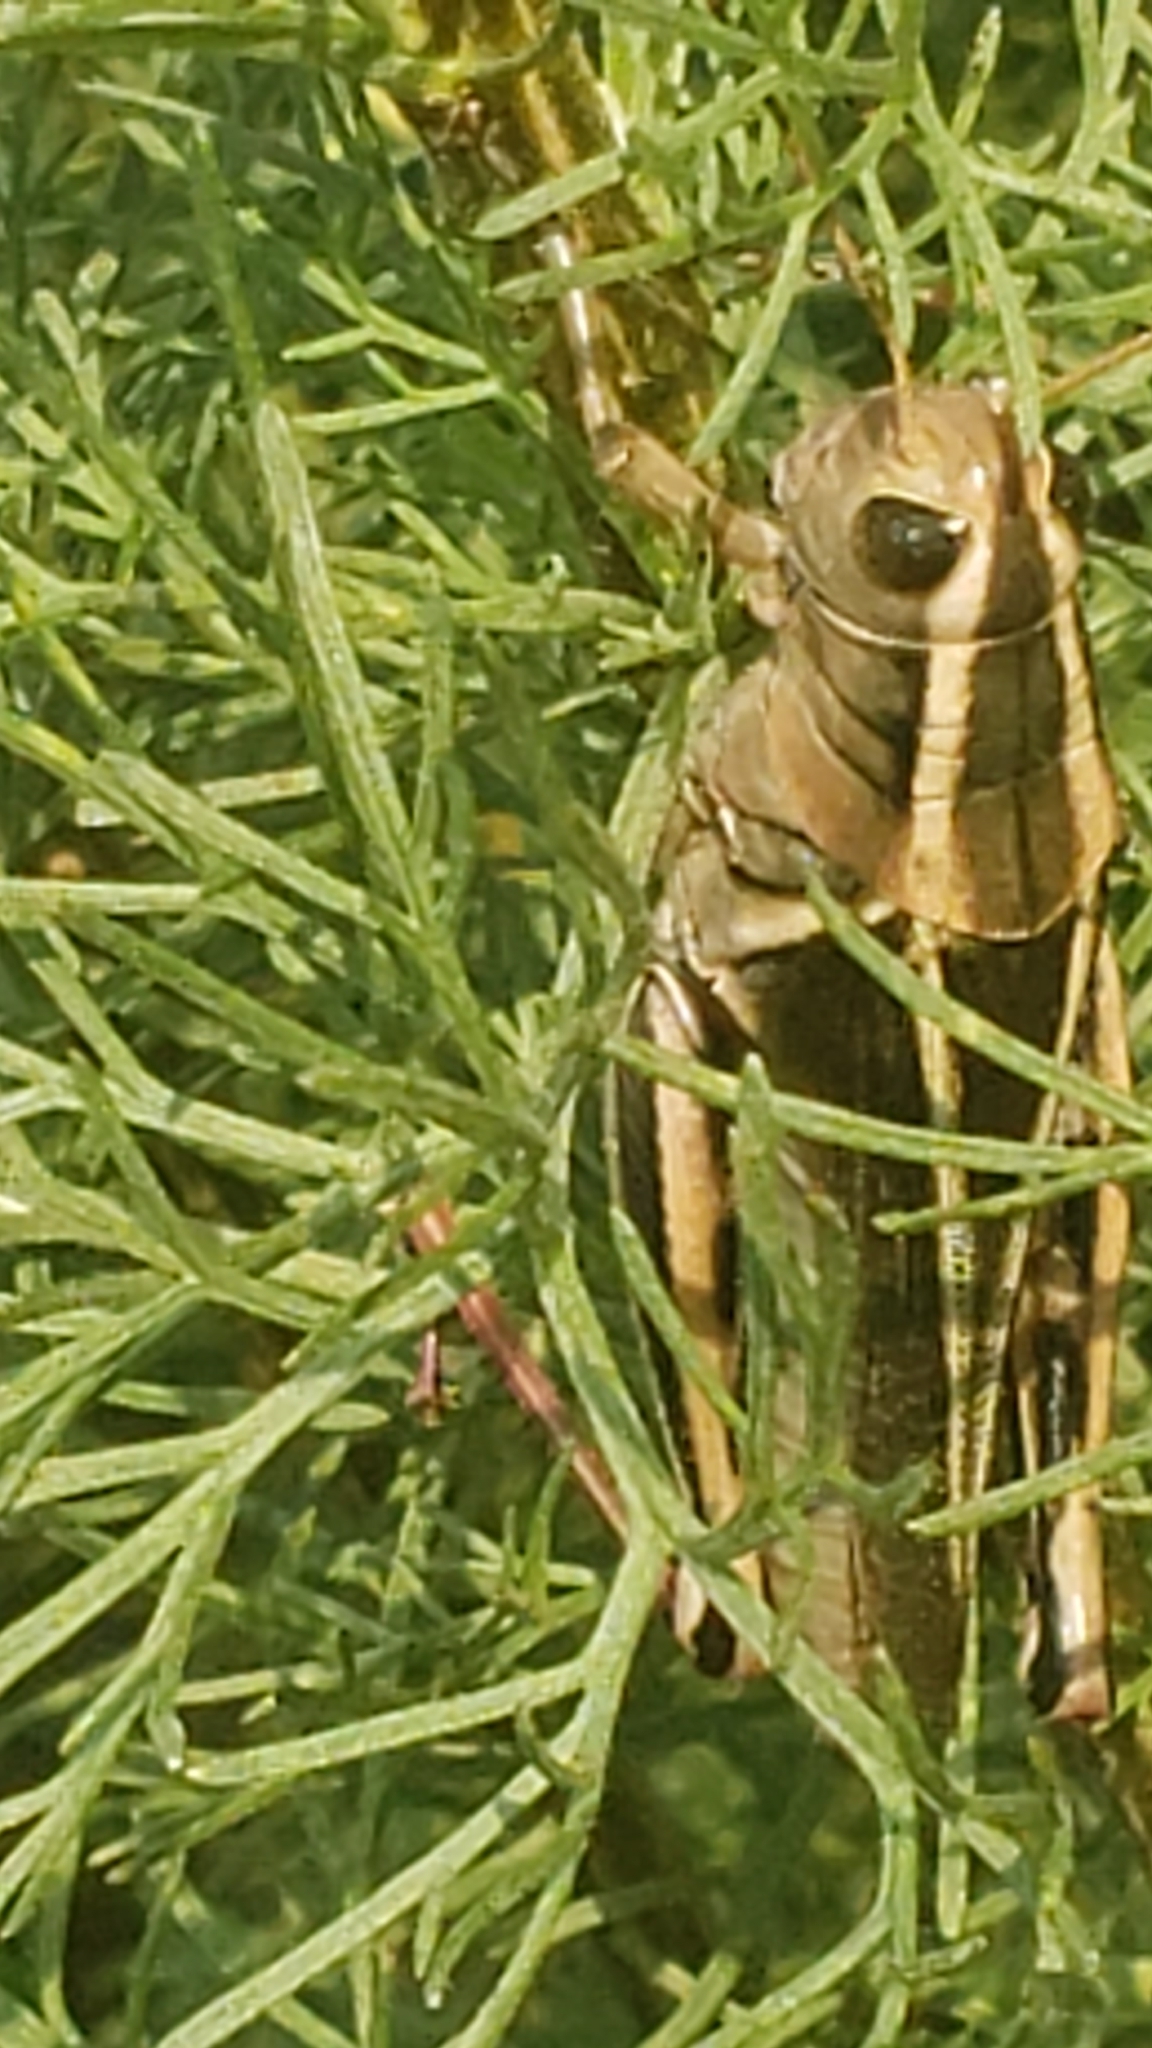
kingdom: Animalia
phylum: Arthropoda
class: Insecta
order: Orthoptera
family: Acrididae
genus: Melanoplus
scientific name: Melanoplus bivittatus
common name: Two-striped grasshopper
